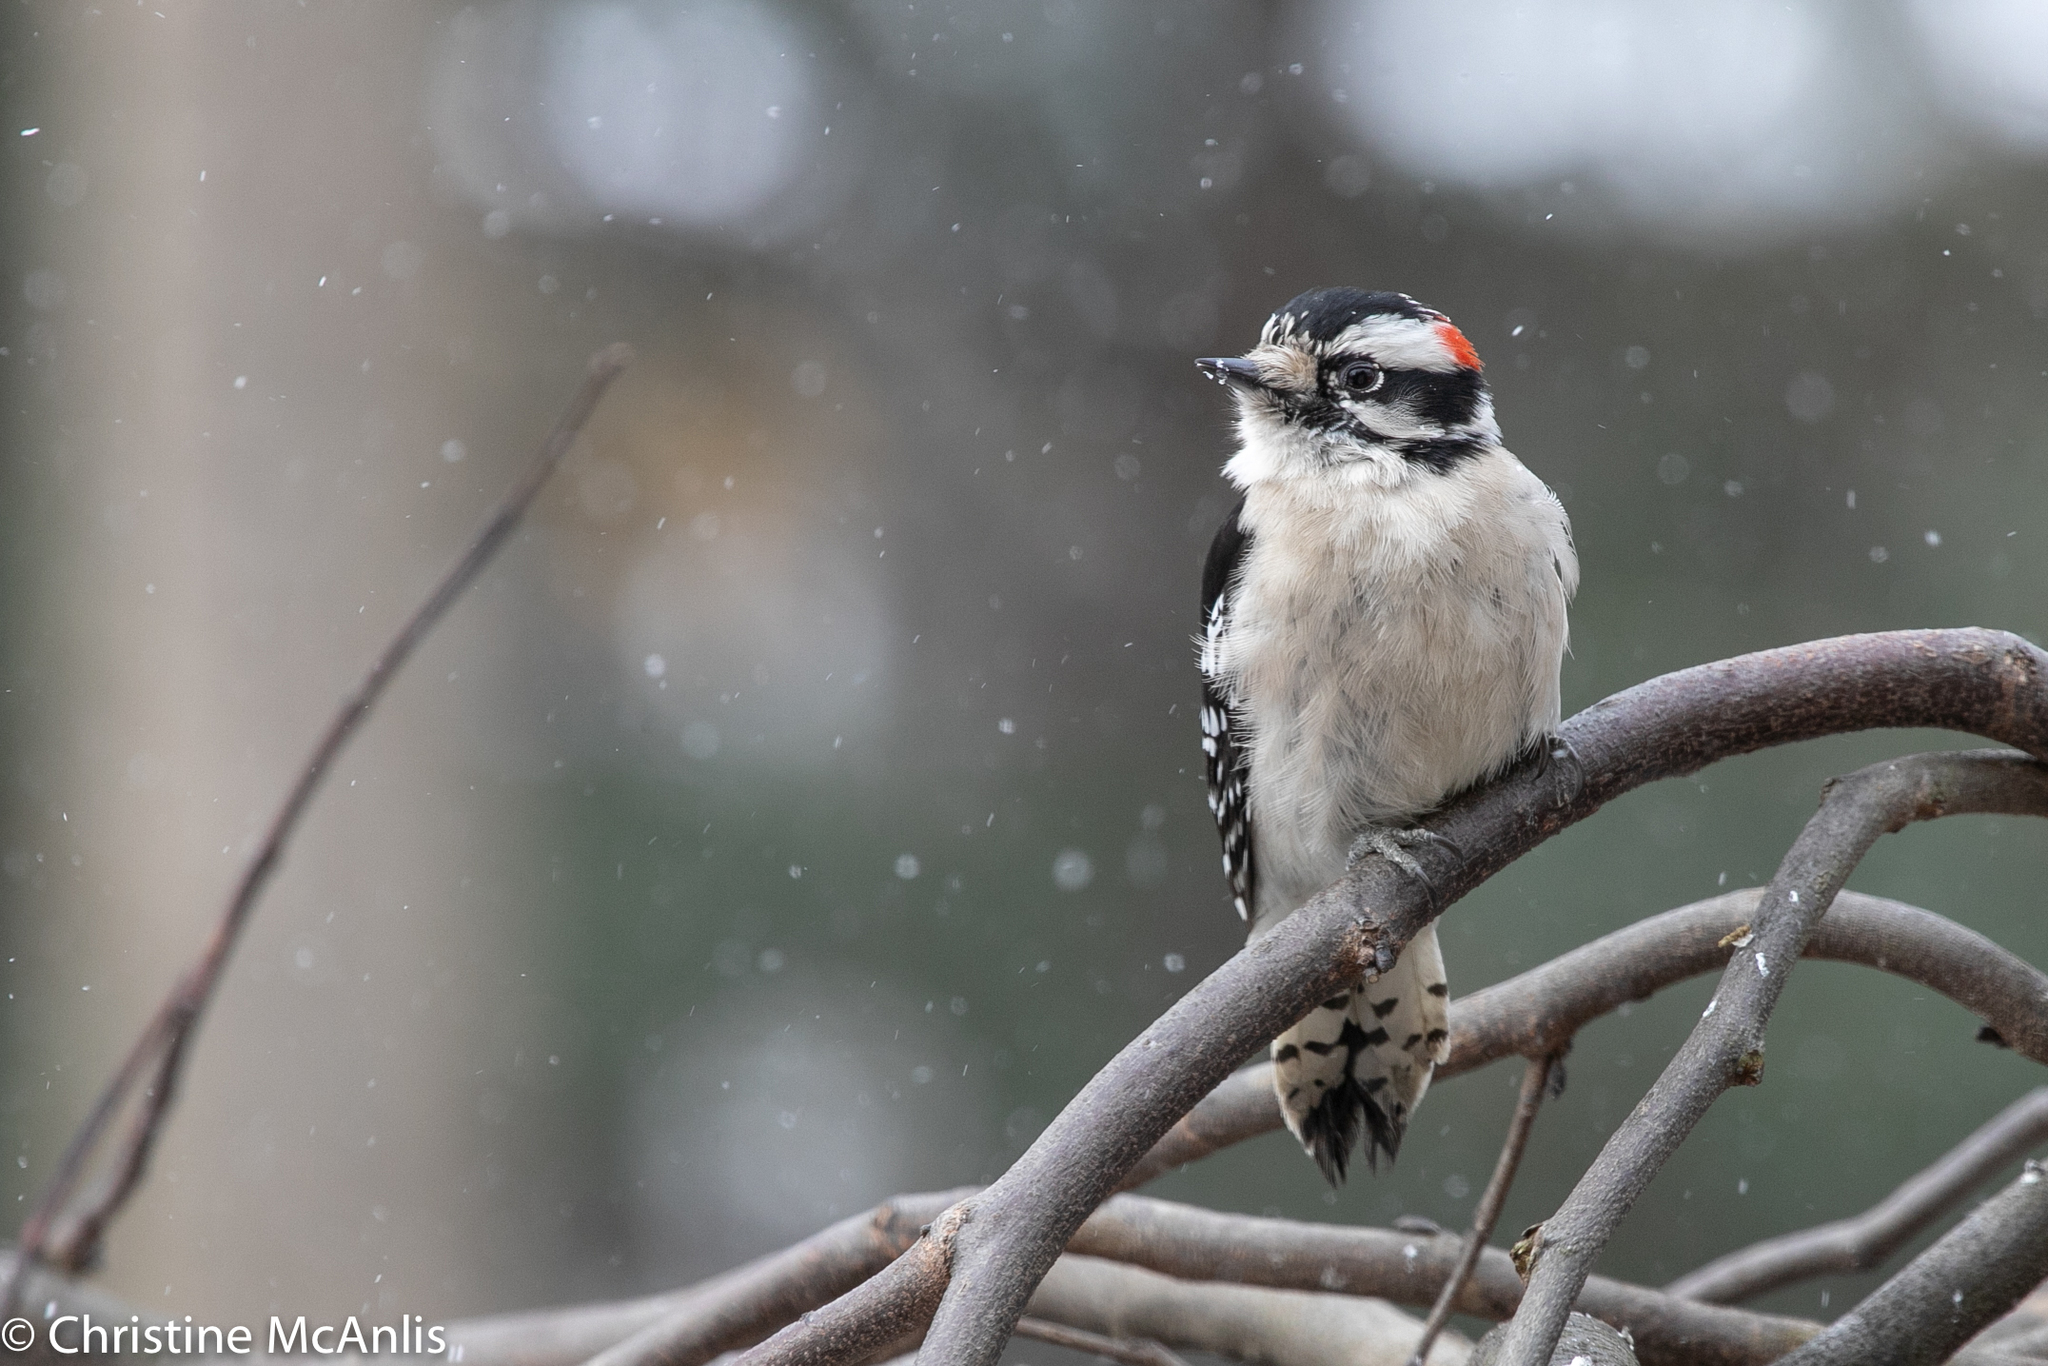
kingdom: Animalia
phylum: Chordata
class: Aves
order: Piciformes
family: Picidae
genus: Dryobates
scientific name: Dryobates pubescens
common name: Downy woodpecker
